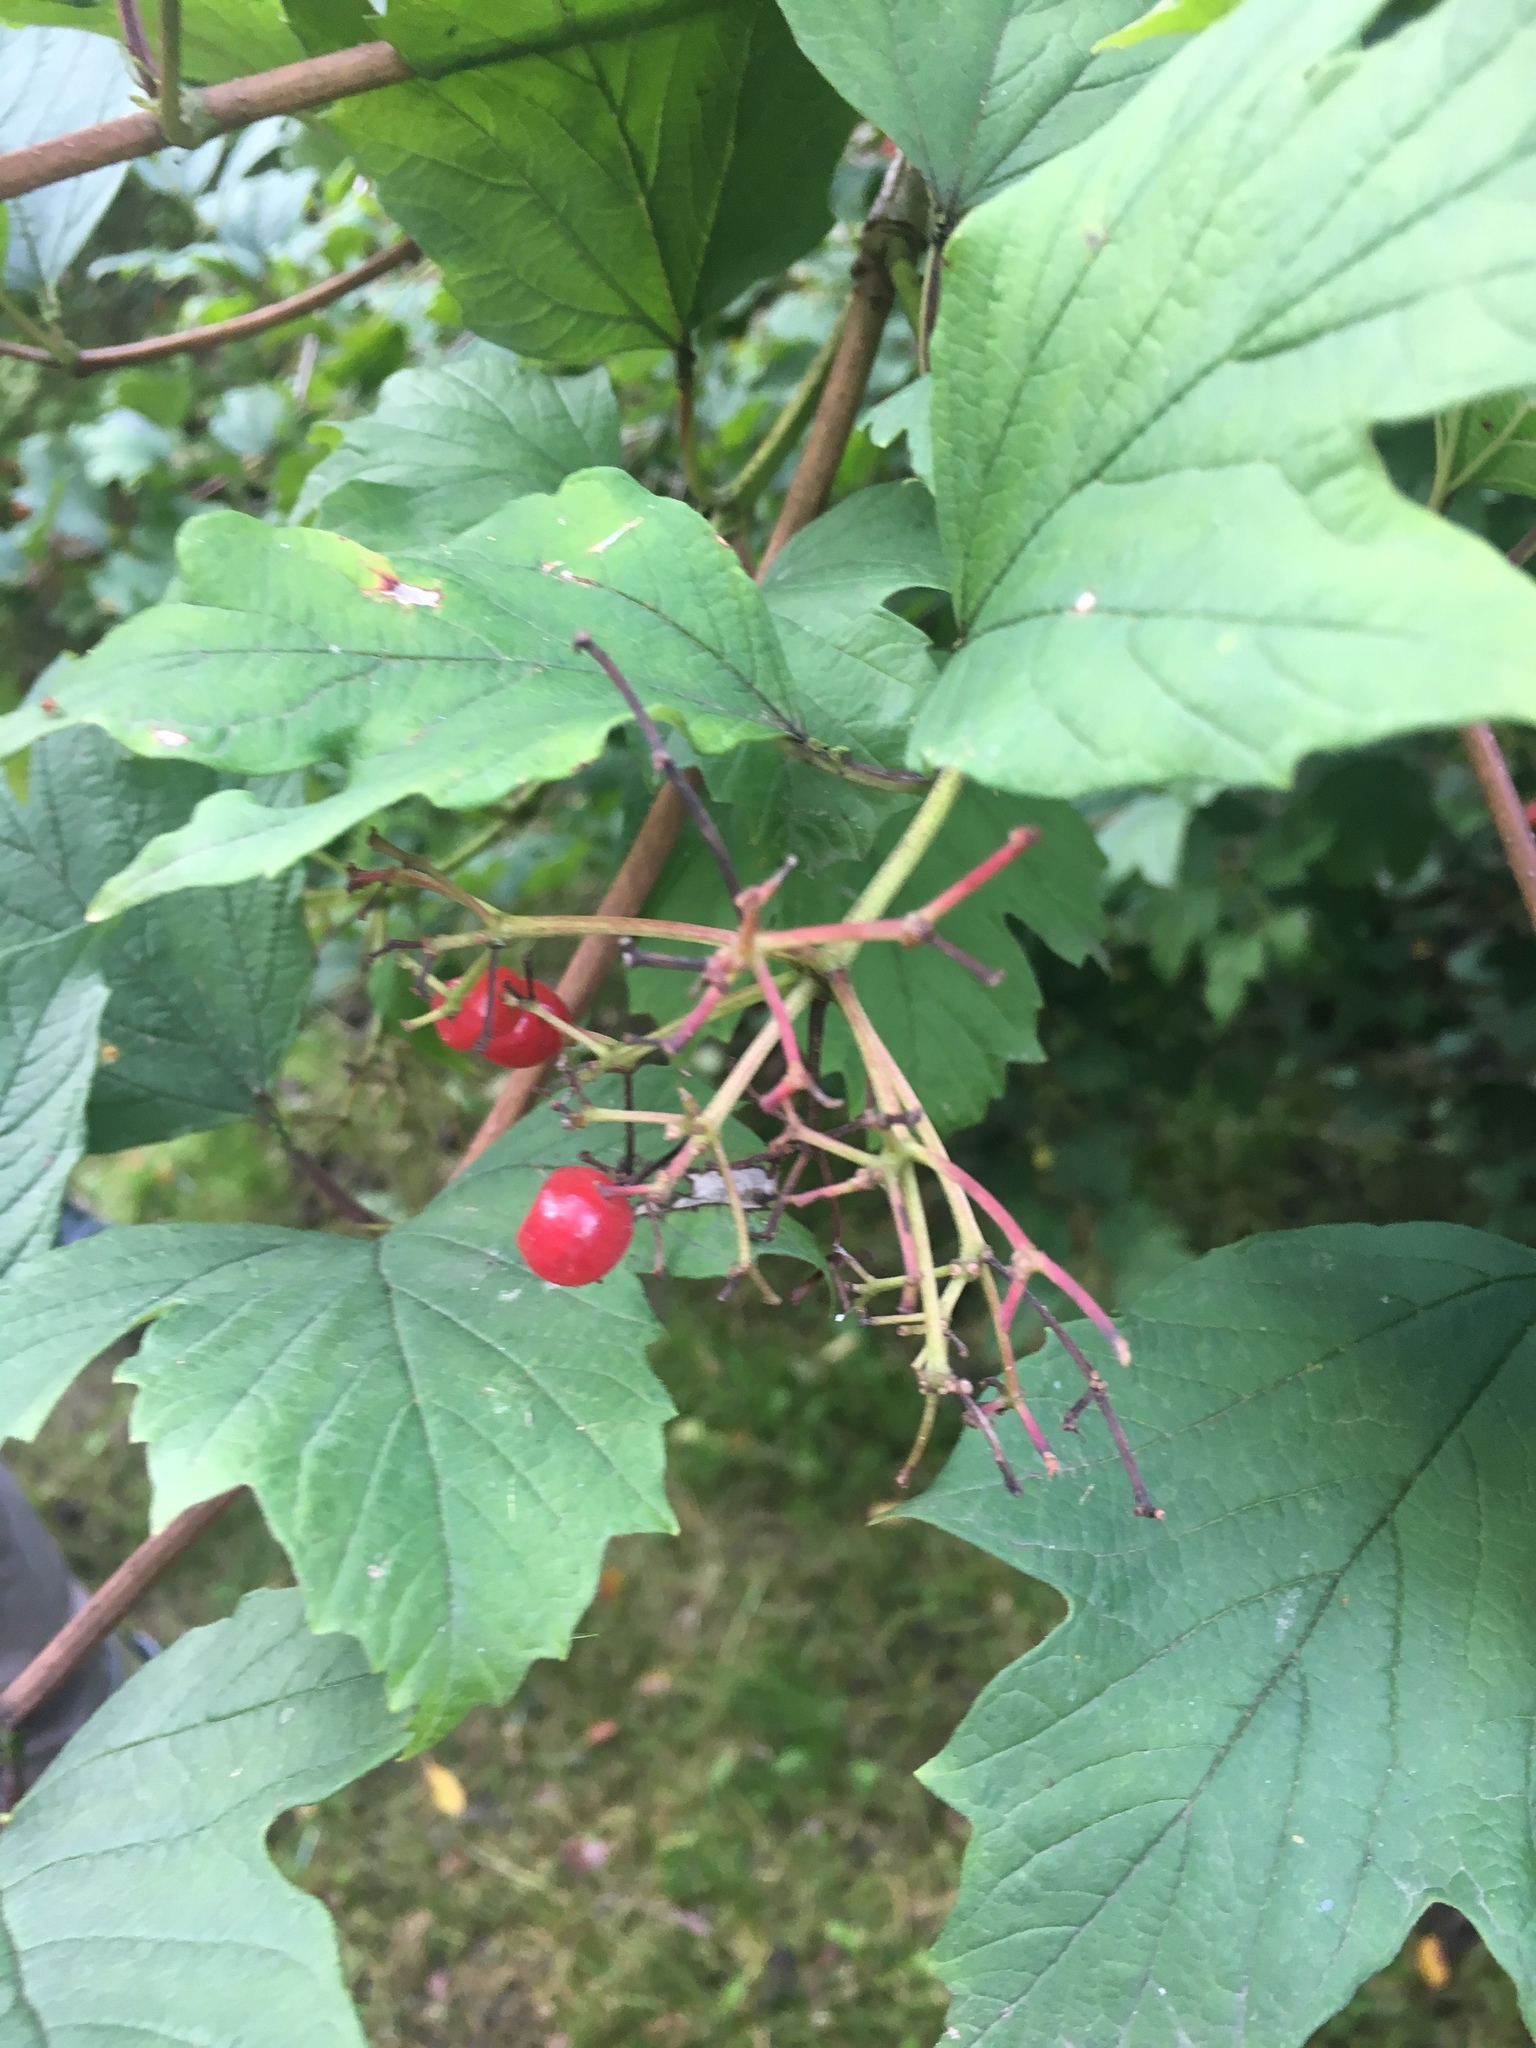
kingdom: Plantae
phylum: Tracheophyta
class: Magnoliopsida
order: Dipsacales
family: Viburnaceae
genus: Viburnum
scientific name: Viburnum opulus
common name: Guelder-rose
